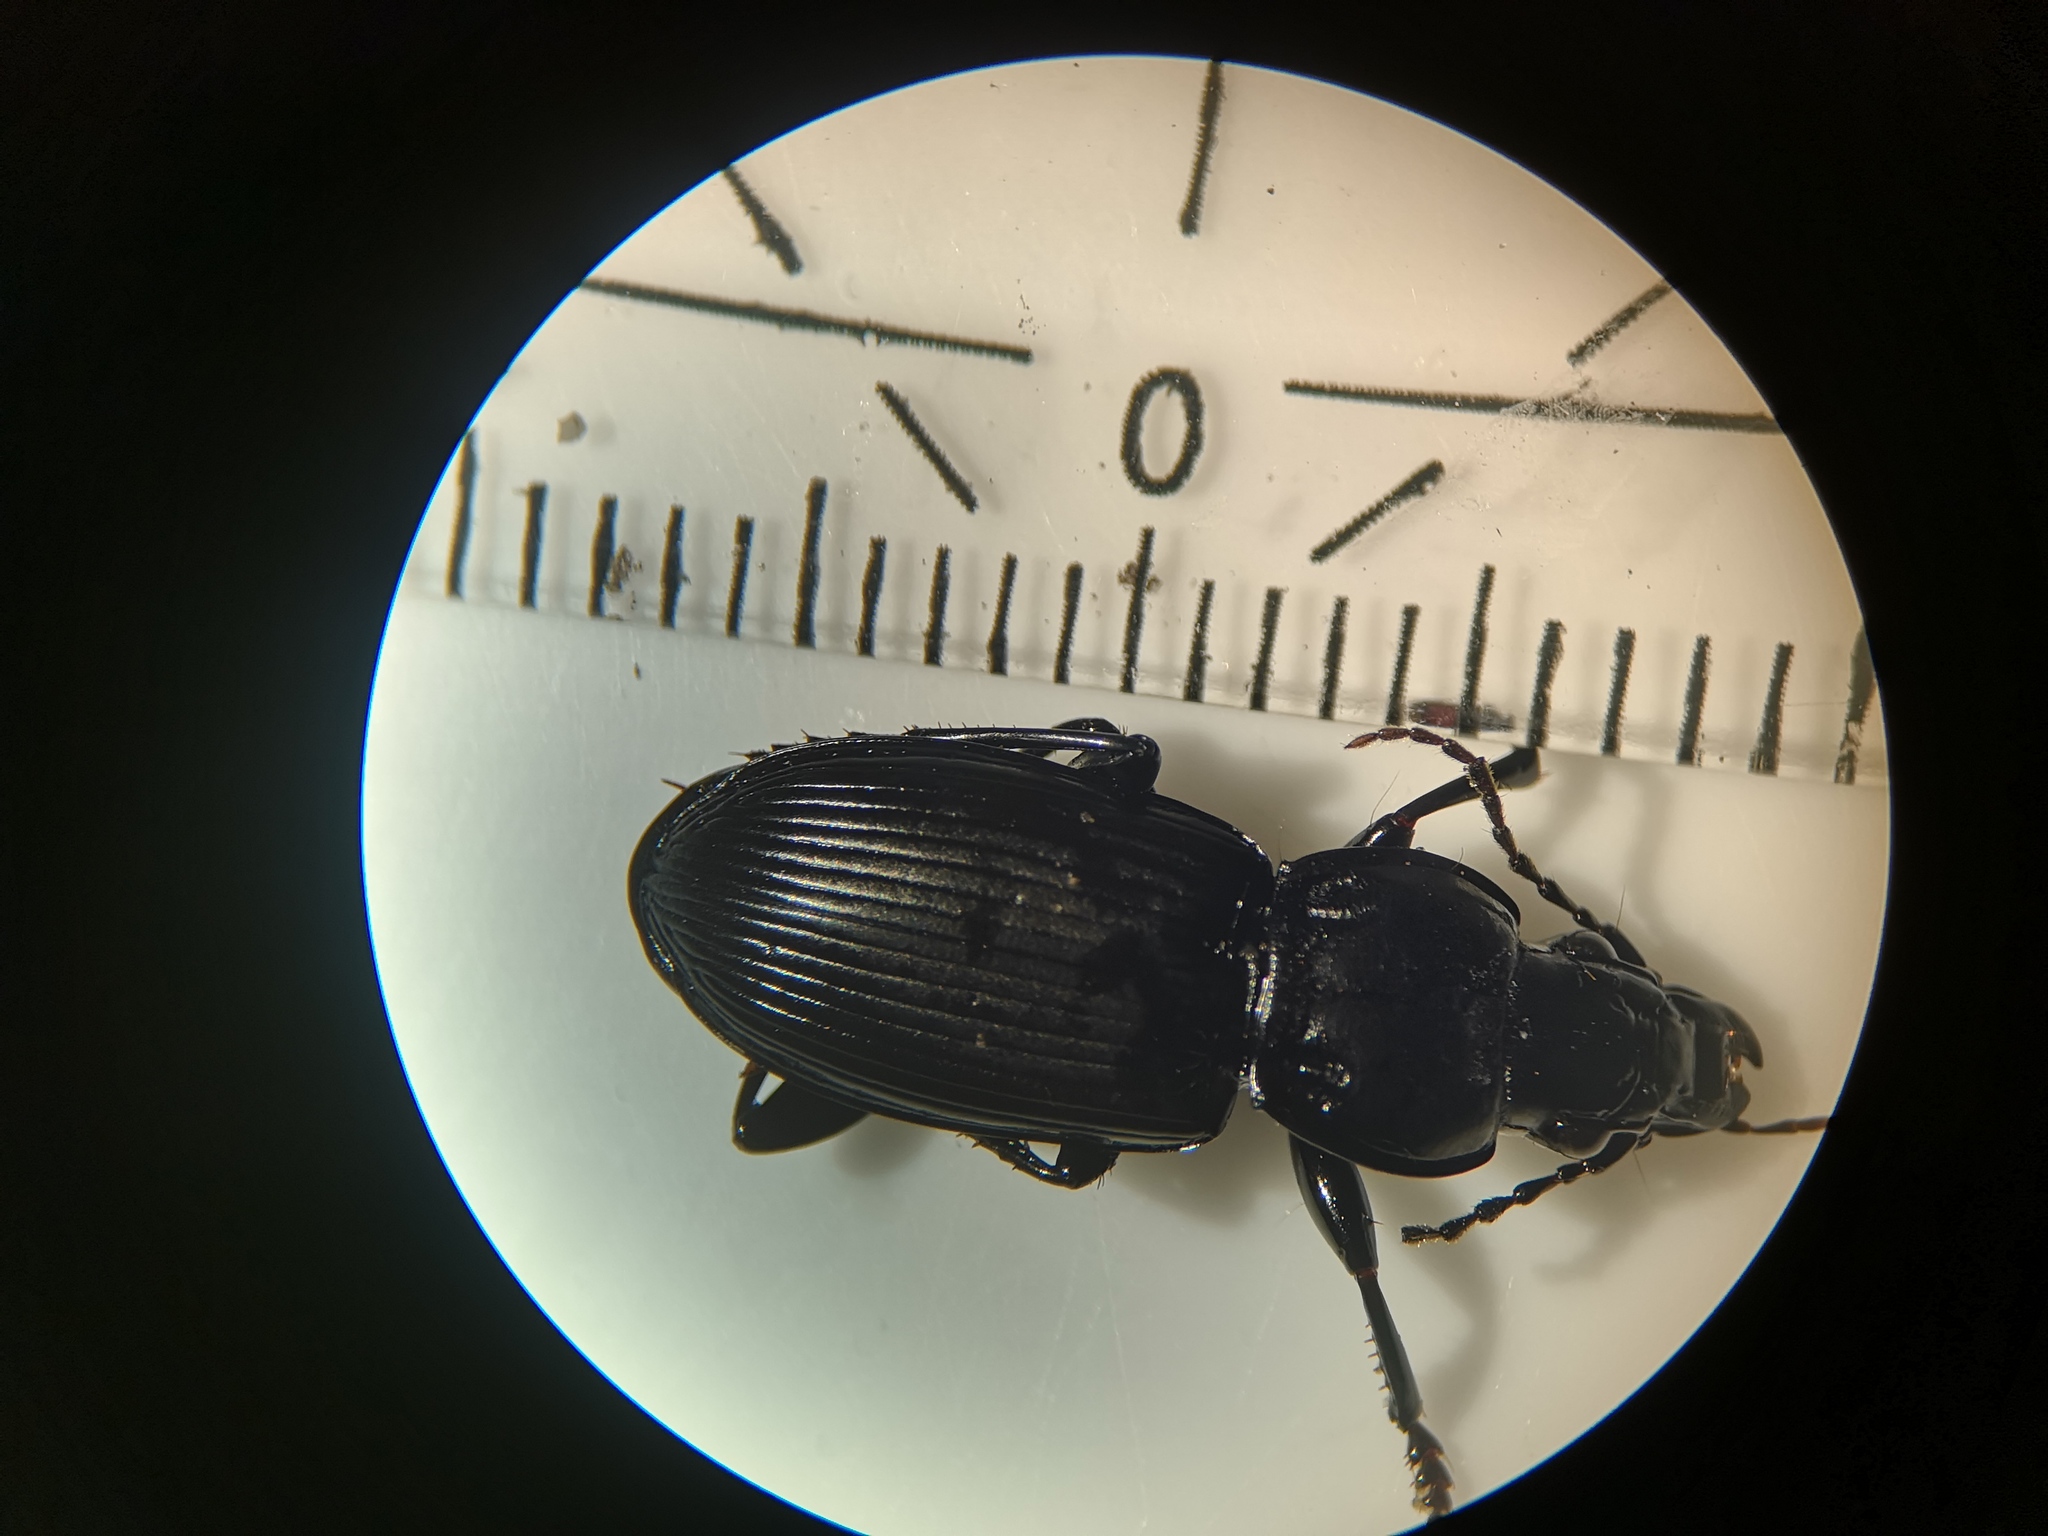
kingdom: Animalia
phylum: Arthropoda
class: Insecta
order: Coleoptera
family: Carabidae
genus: Pterostichus
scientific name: Pterostichus melanarius
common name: European dark harp ground beetle
